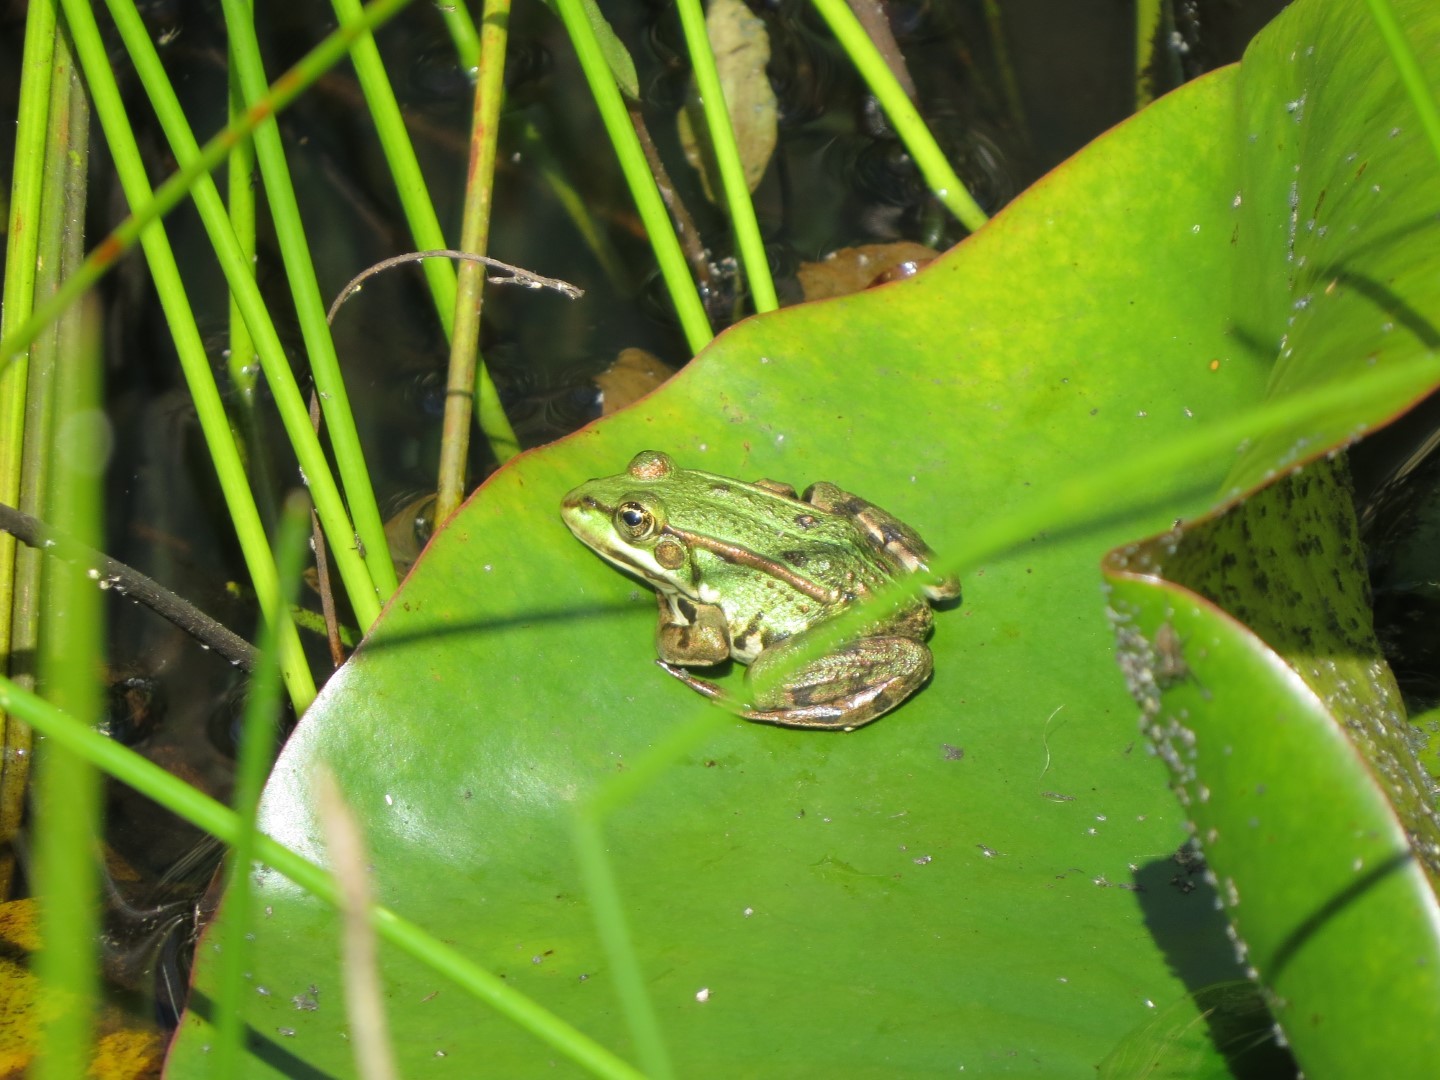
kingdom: Animalia
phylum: Chordata
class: Amphibia
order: Anura
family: Ranidae
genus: Pelophylax
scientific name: Pelophylax
